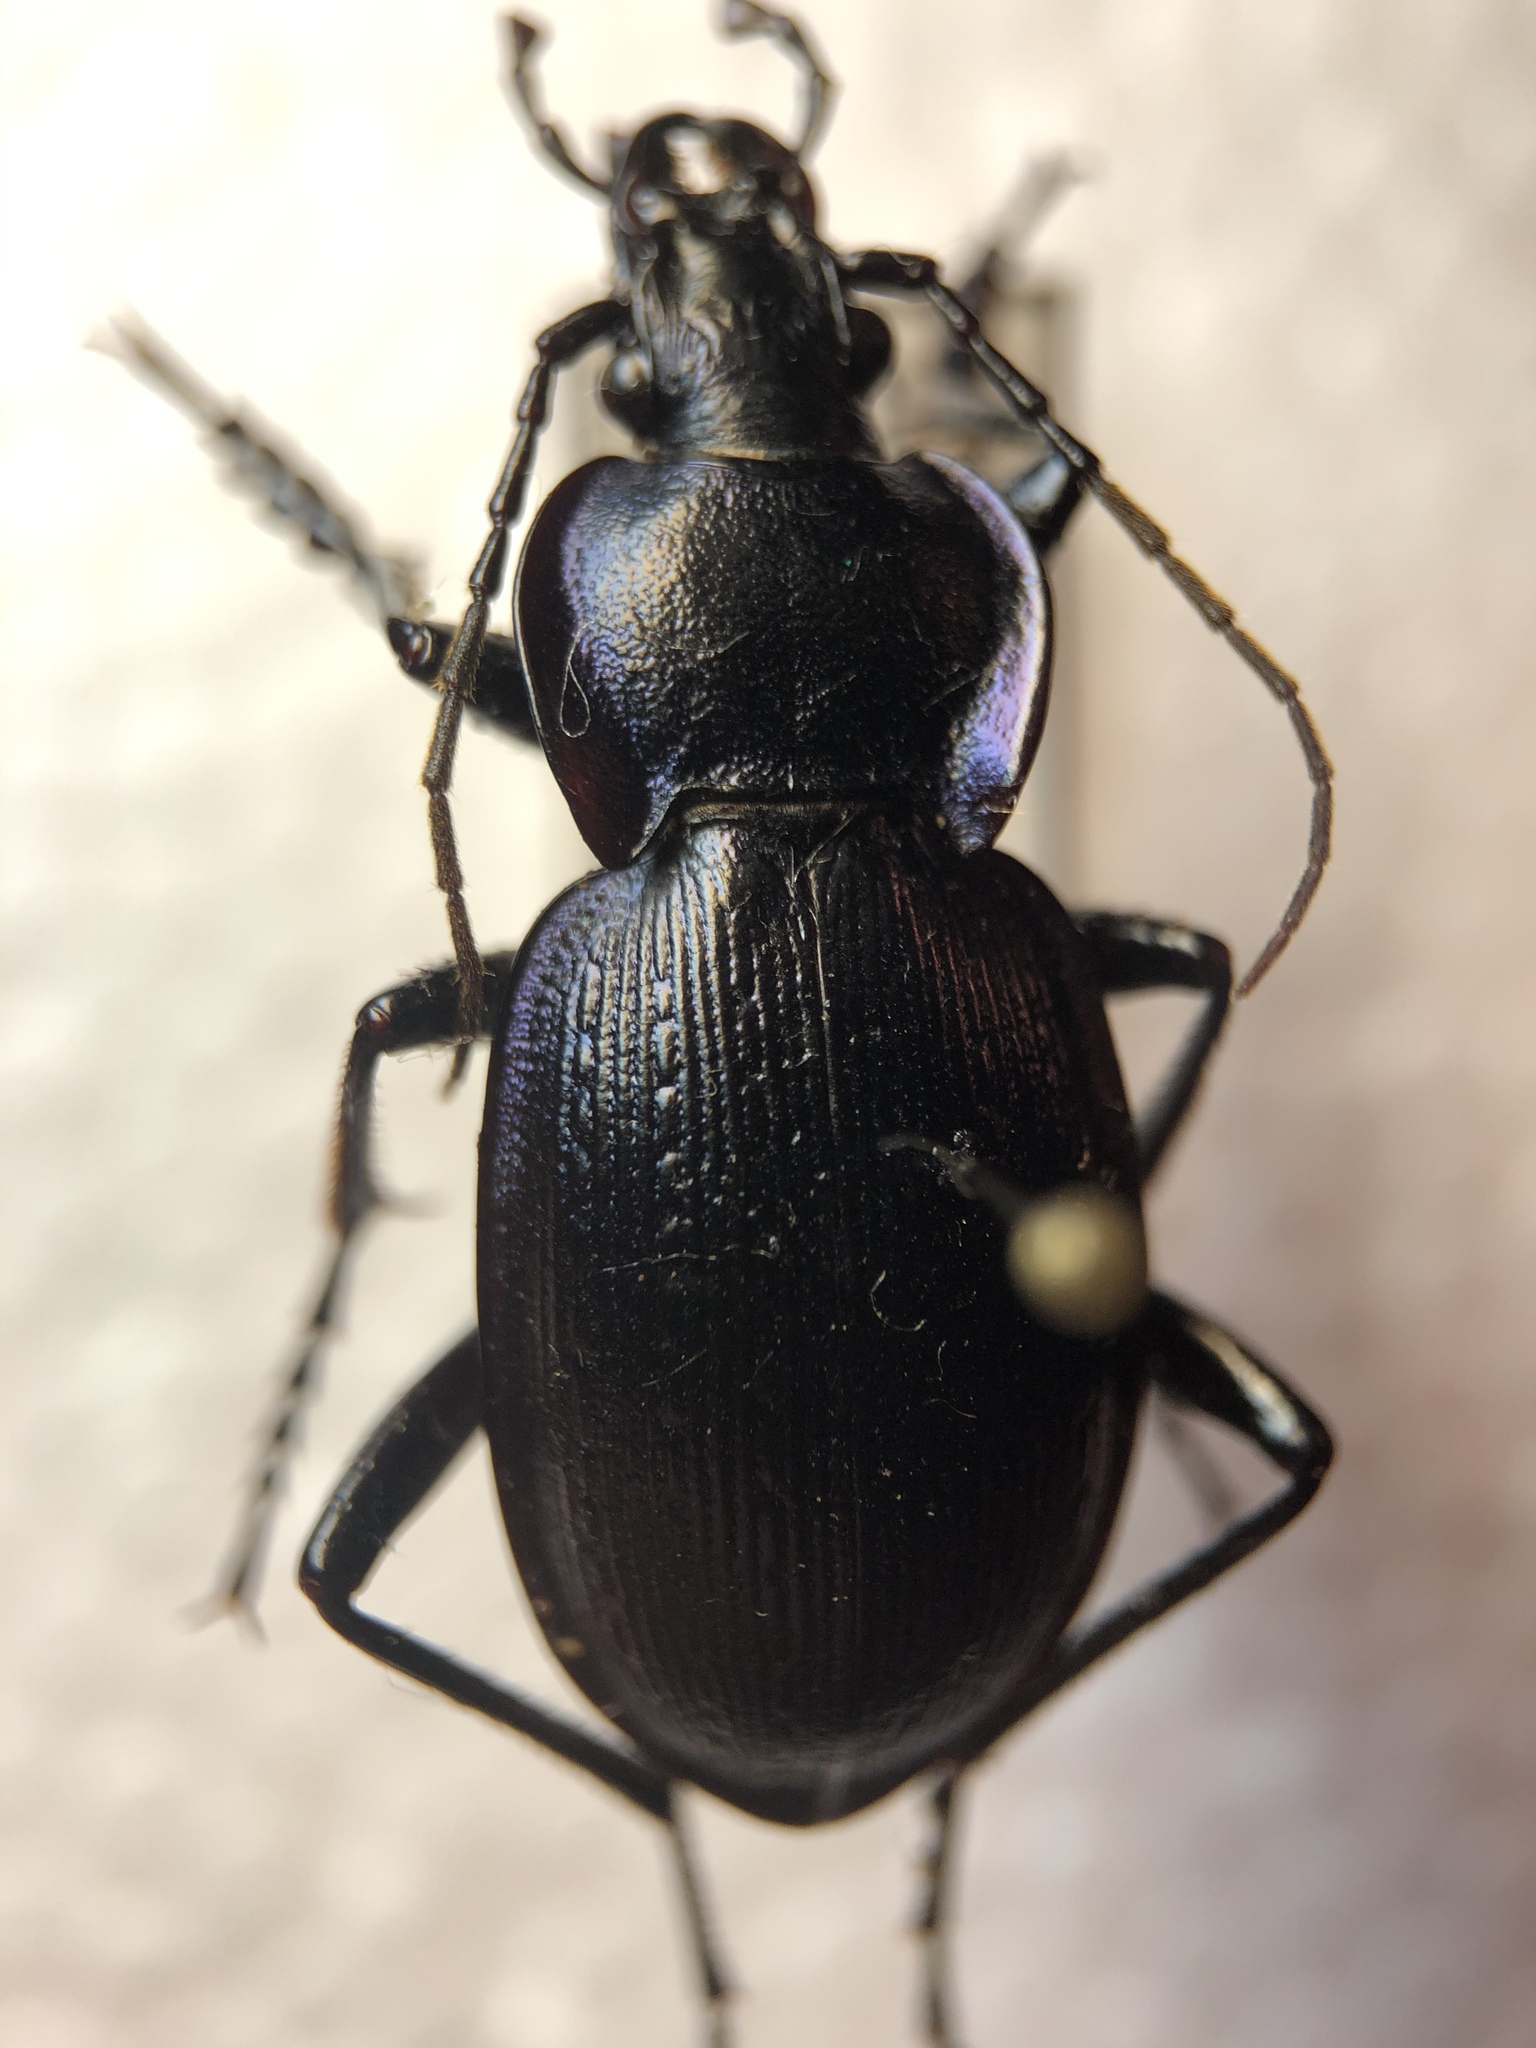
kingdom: Animalia
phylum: Arthropoda
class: Insecta
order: Coleoptera
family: Carabidae
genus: Carabus
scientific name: Carabus problematicus
